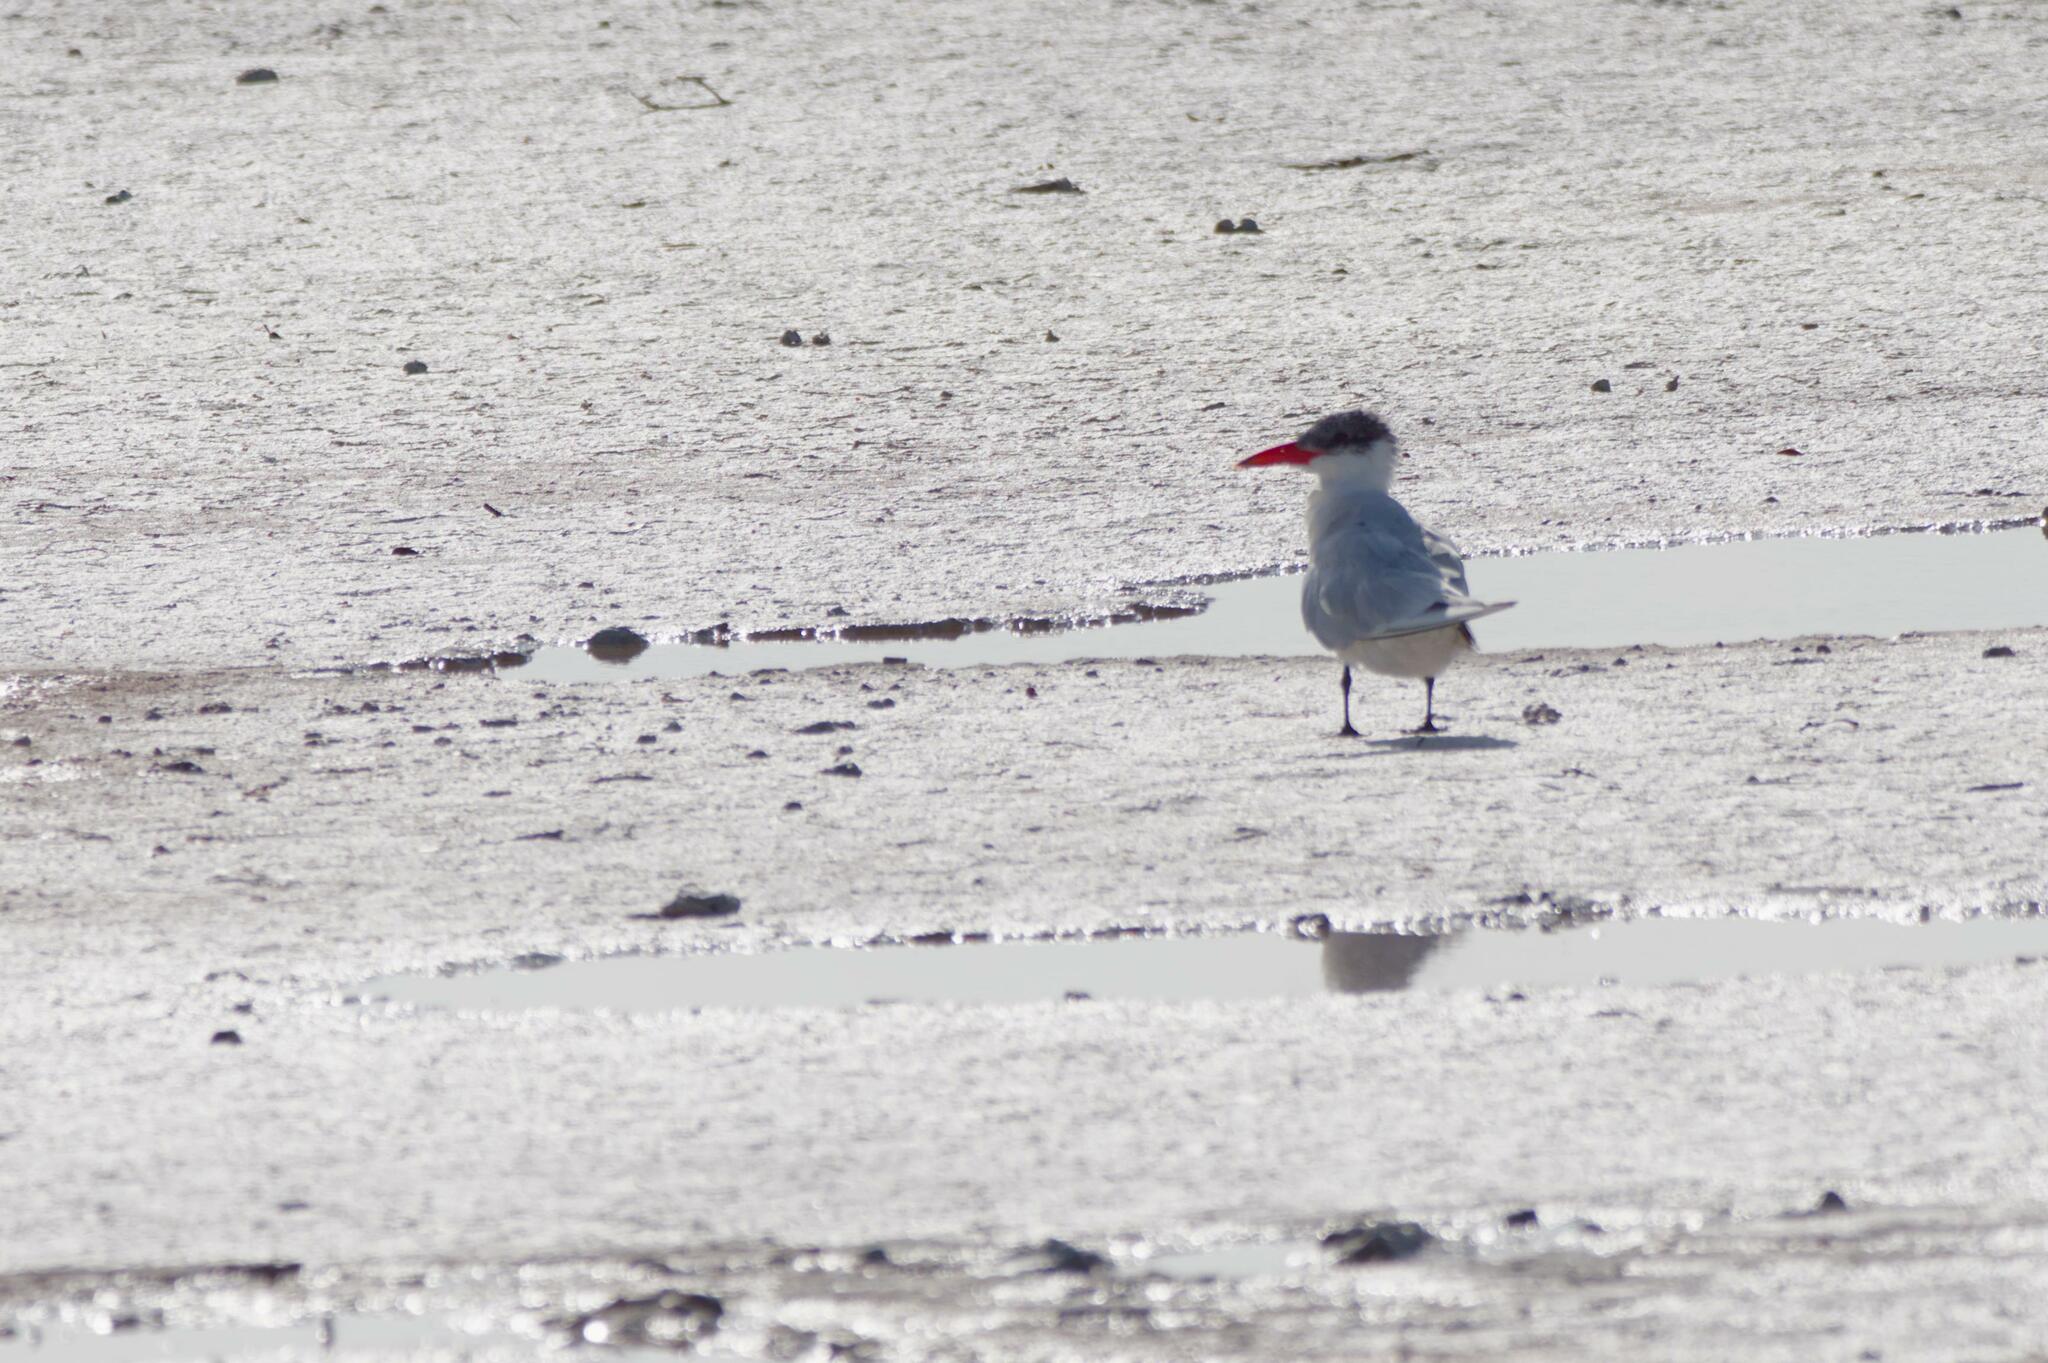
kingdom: Animalia
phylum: Chordata
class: Aves
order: Charadriiformes
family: Laridae
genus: Hydroprogne
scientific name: Hydroprogne caspia
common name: Caspian tern
